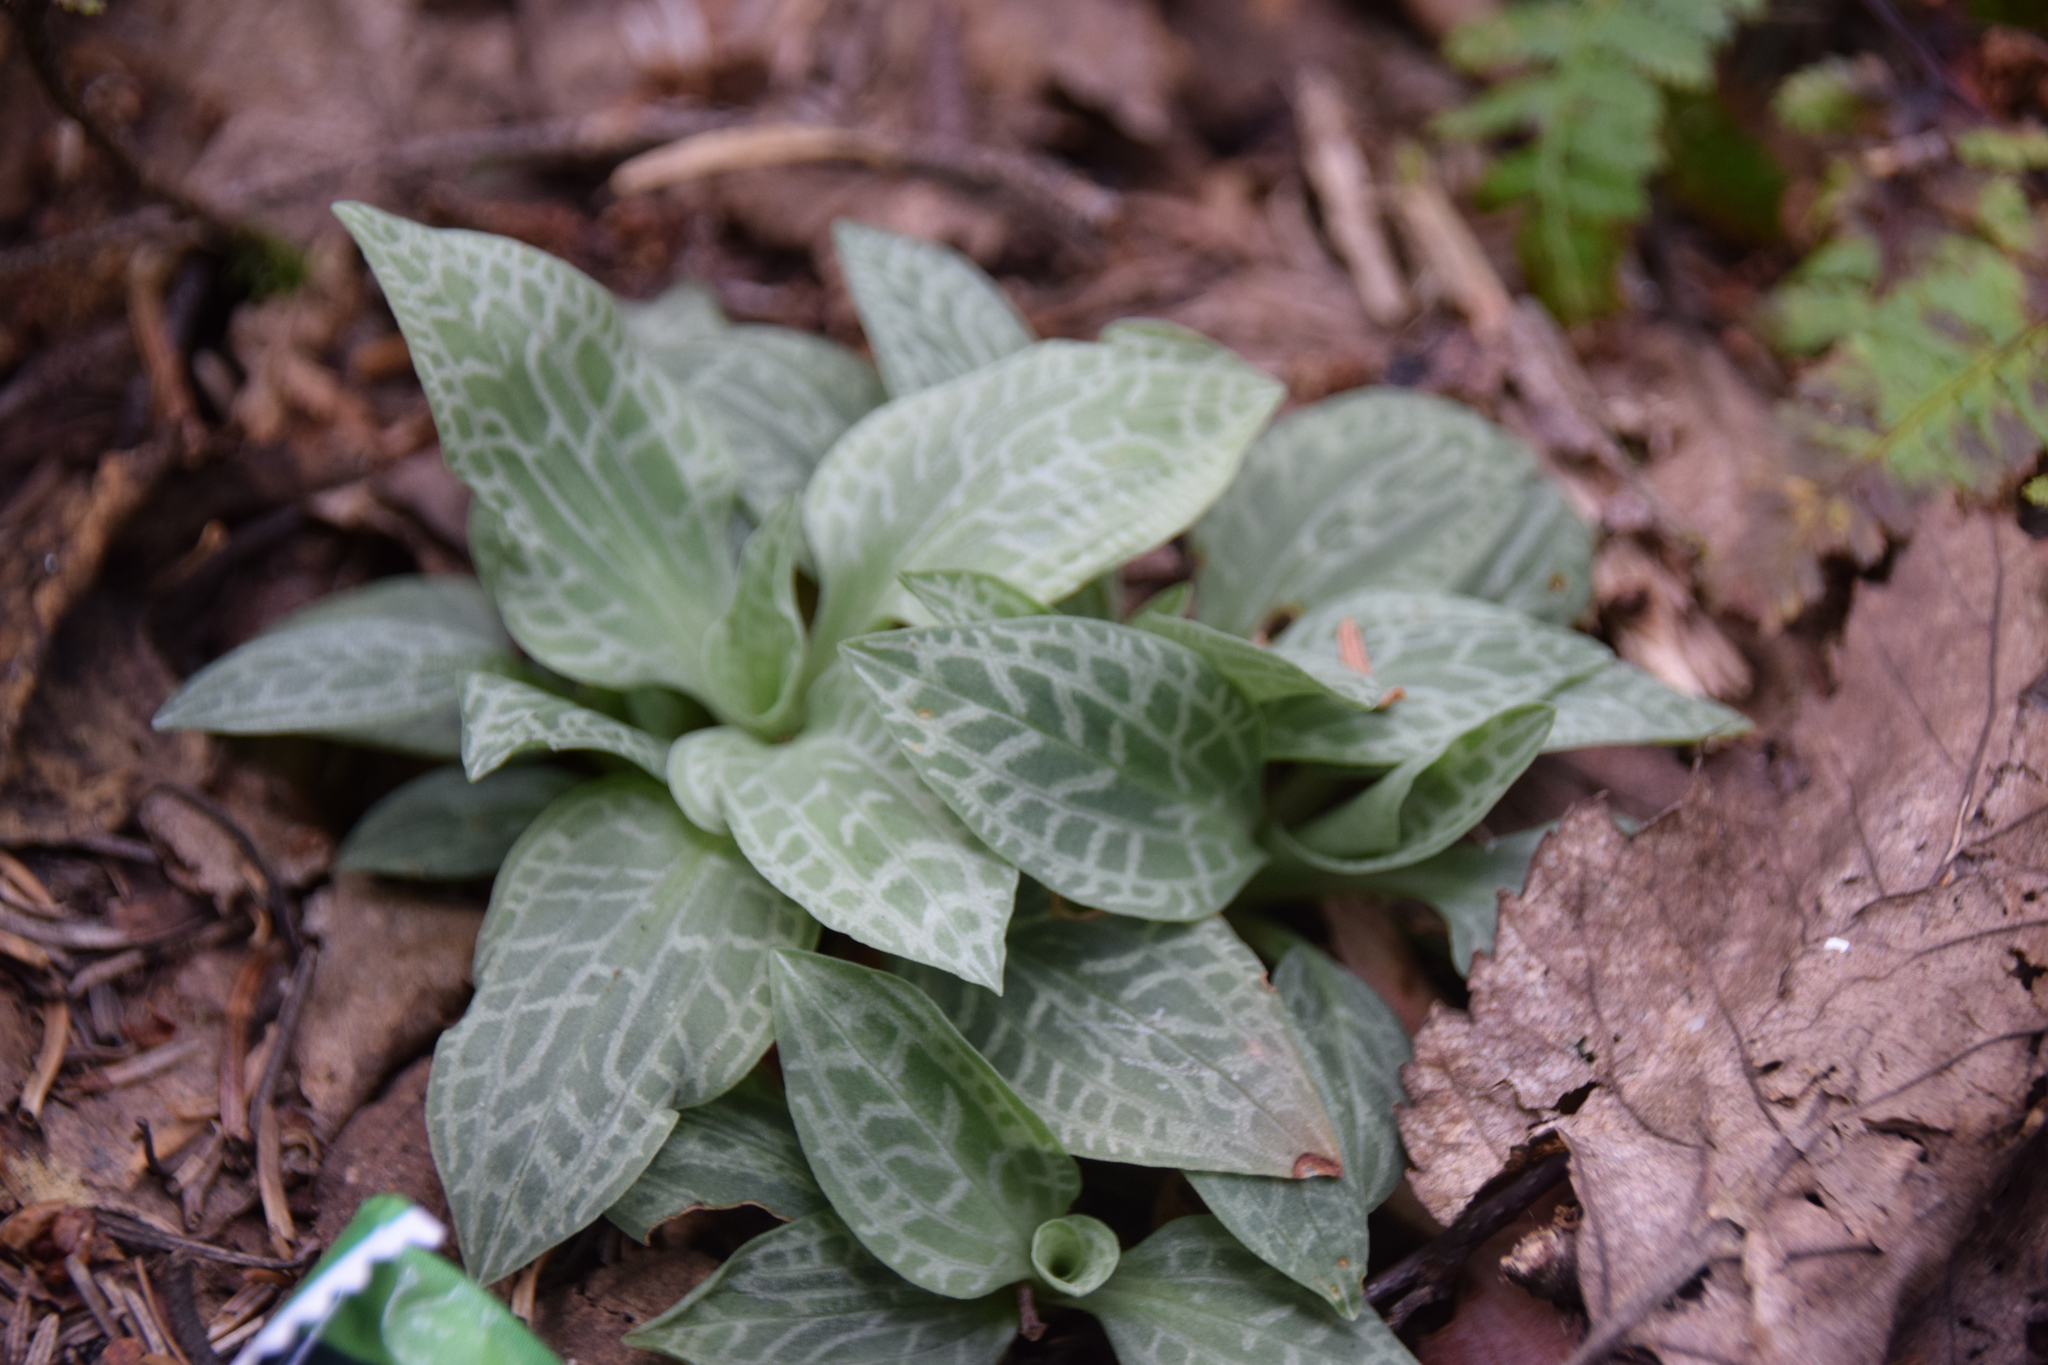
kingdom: Plantae
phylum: Tracheophyta
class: Liliopsida
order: Asparagales
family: Orchidaceae
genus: Goodyera
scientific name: Goodyera tesselata
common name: Checkered rattlesnake-plantain
